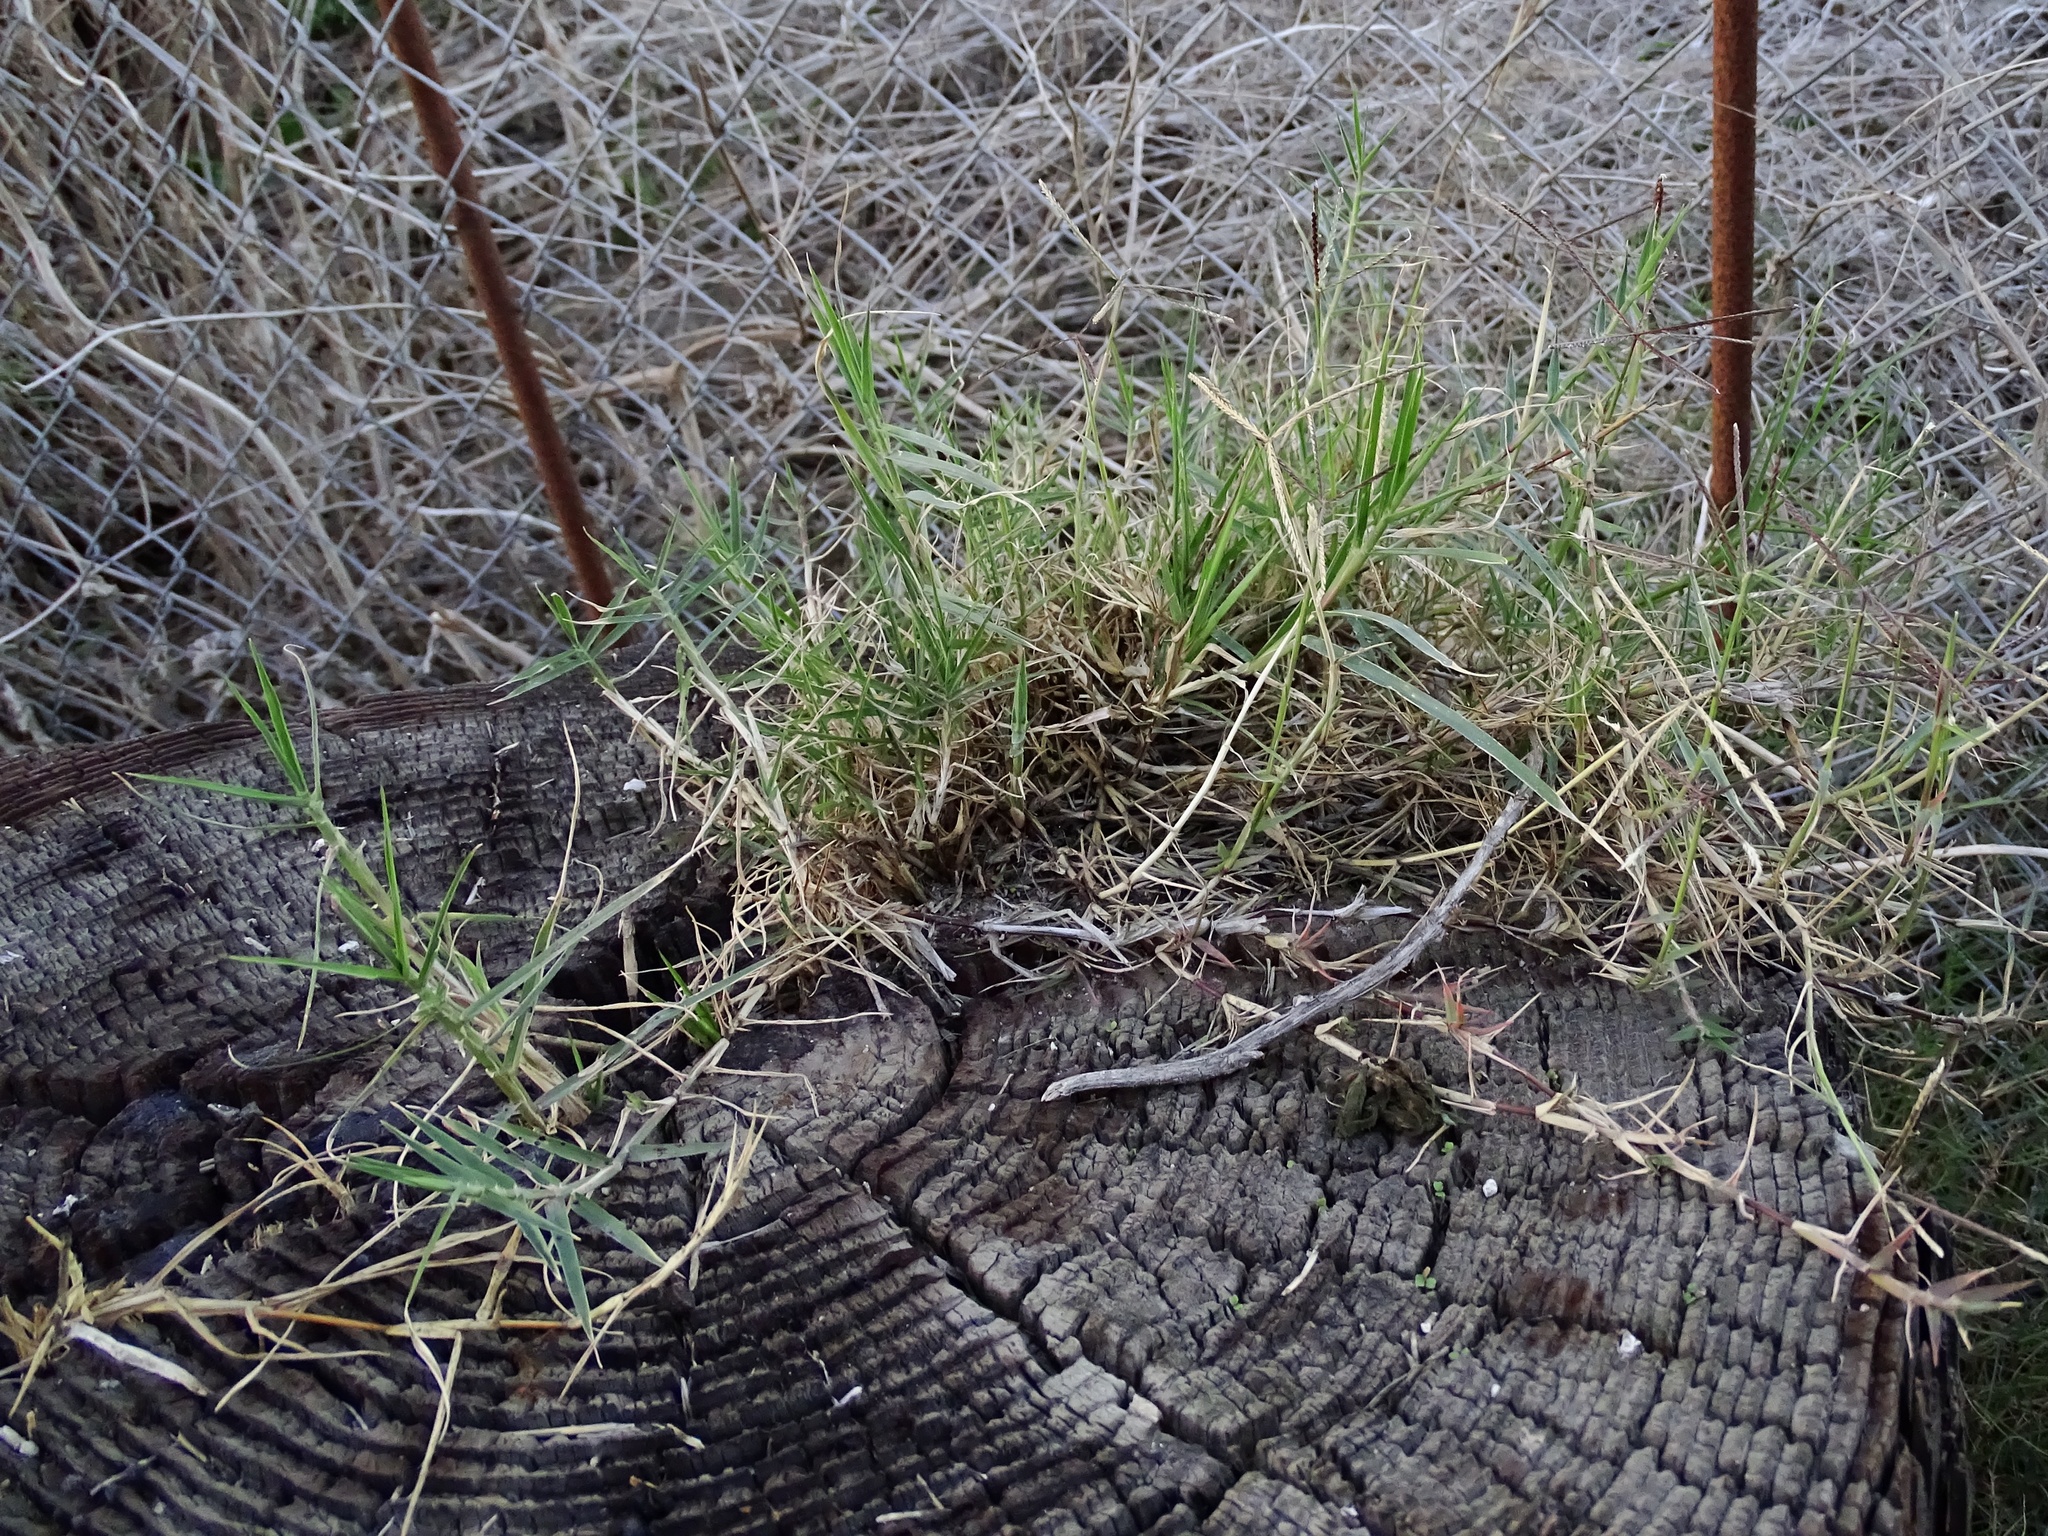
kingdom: Plantae
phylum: Tracheophyta
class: Liliopsida
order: Poales
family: Poaceae
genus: Cynodon
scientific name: Cynodon dactylon
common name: Bermuda grass
